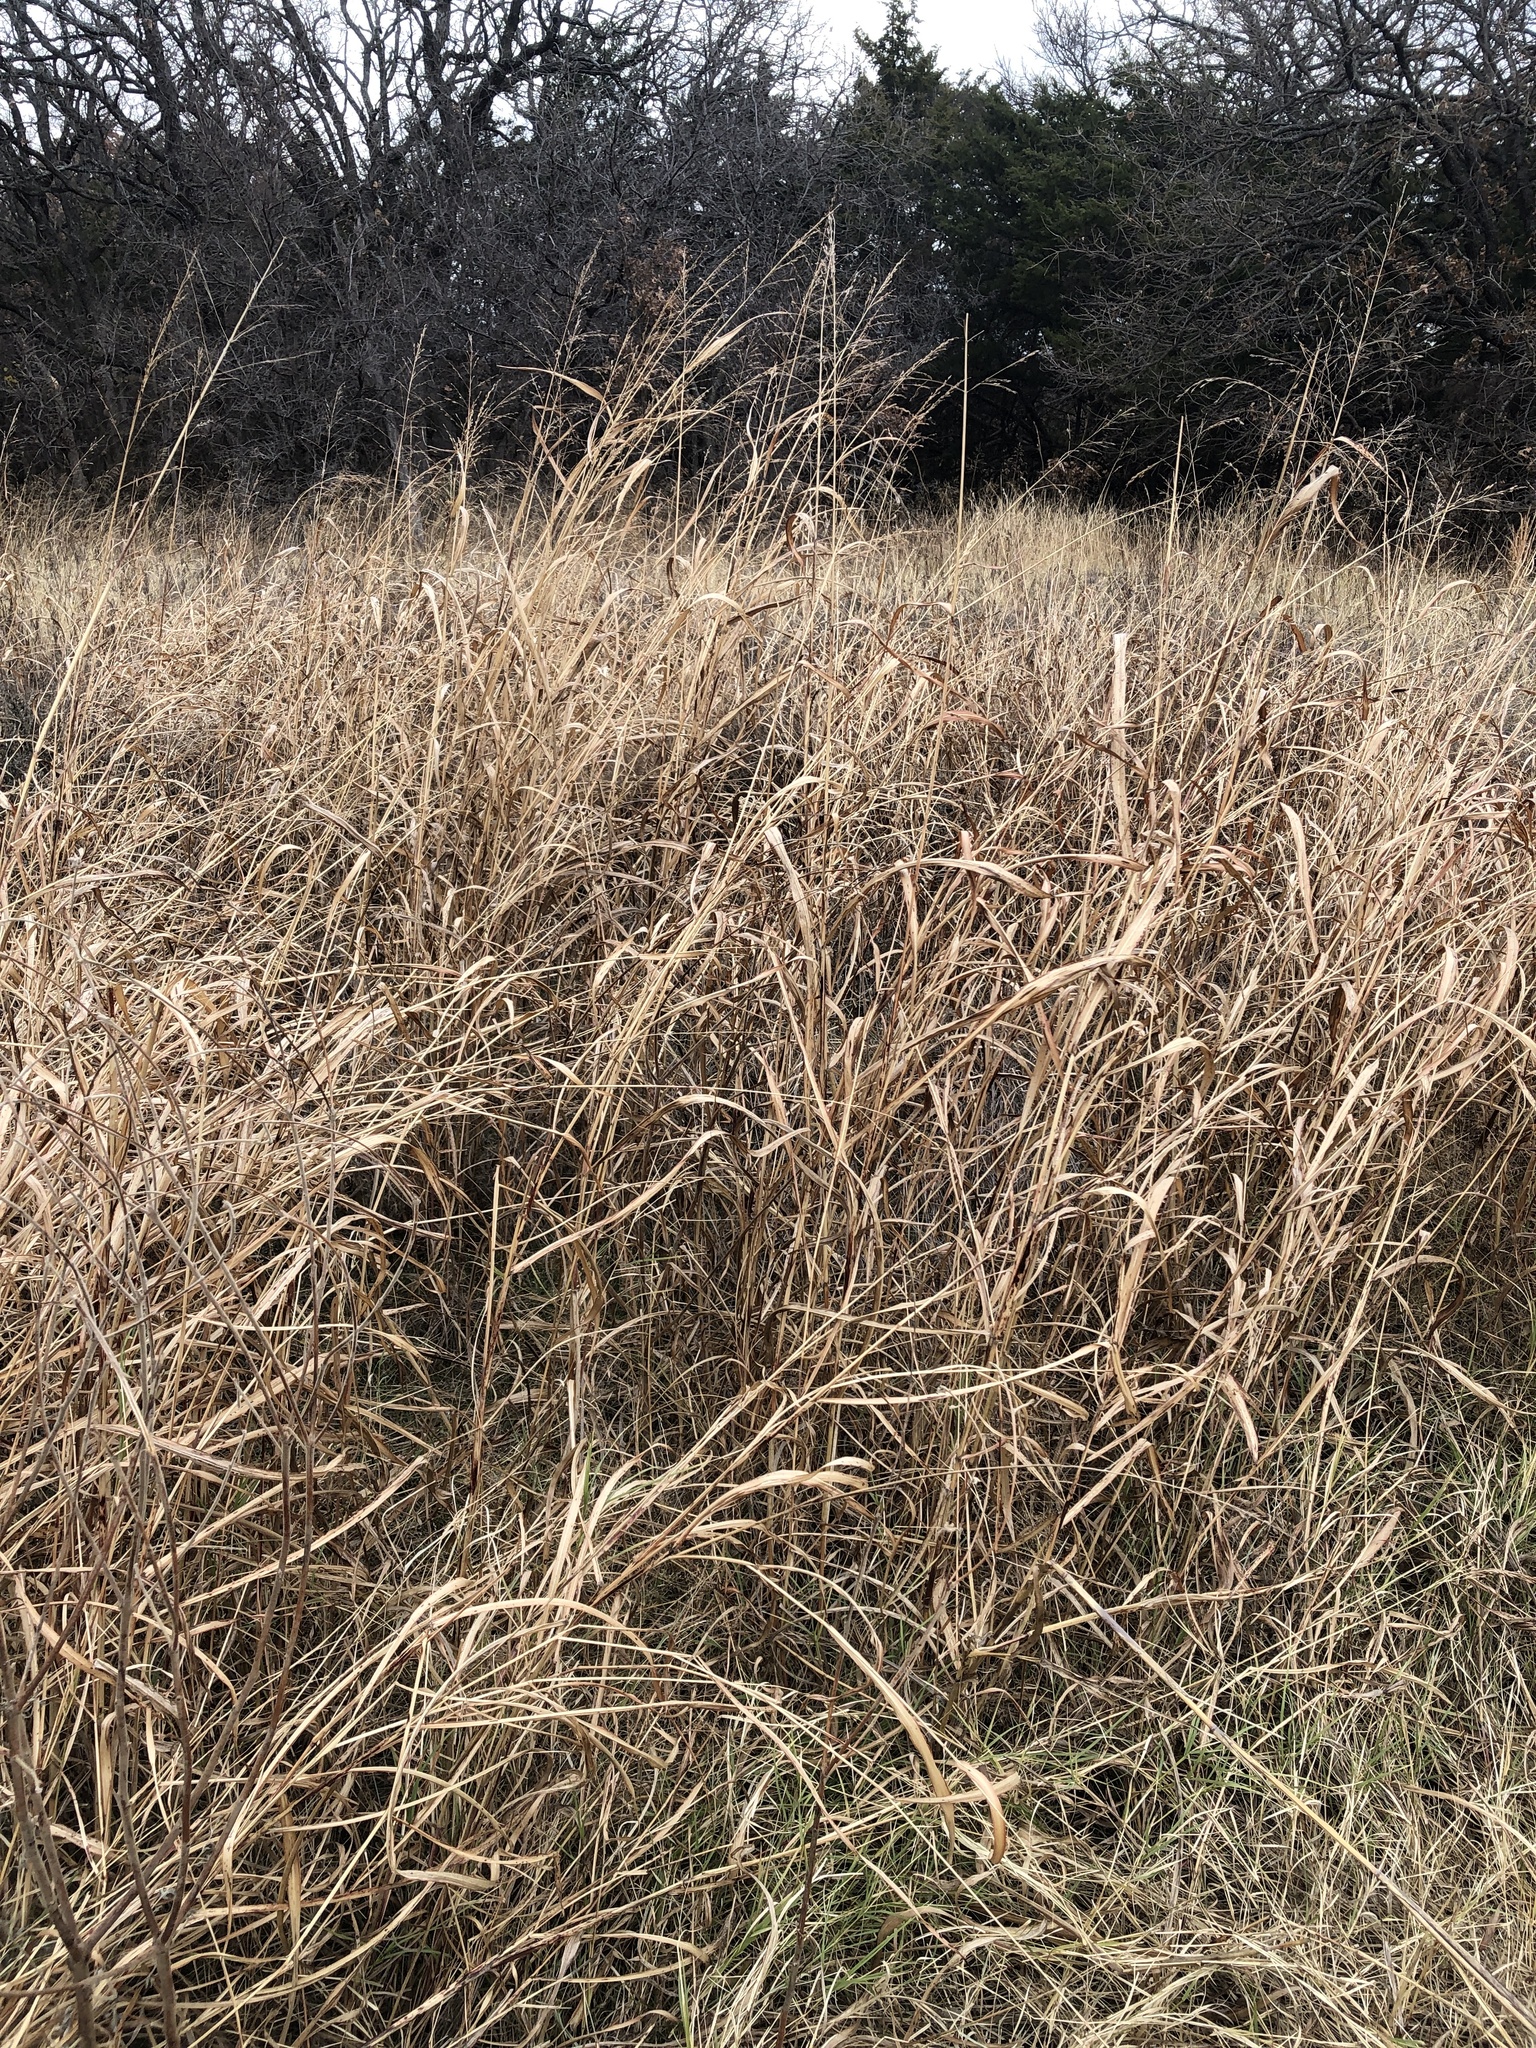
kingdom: Plantae
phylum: Tracheophyta
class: Liliopsida
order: Poales
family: Poaceae
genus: Sorghum
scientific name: Sorghum halepense
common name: Johnson-grass
